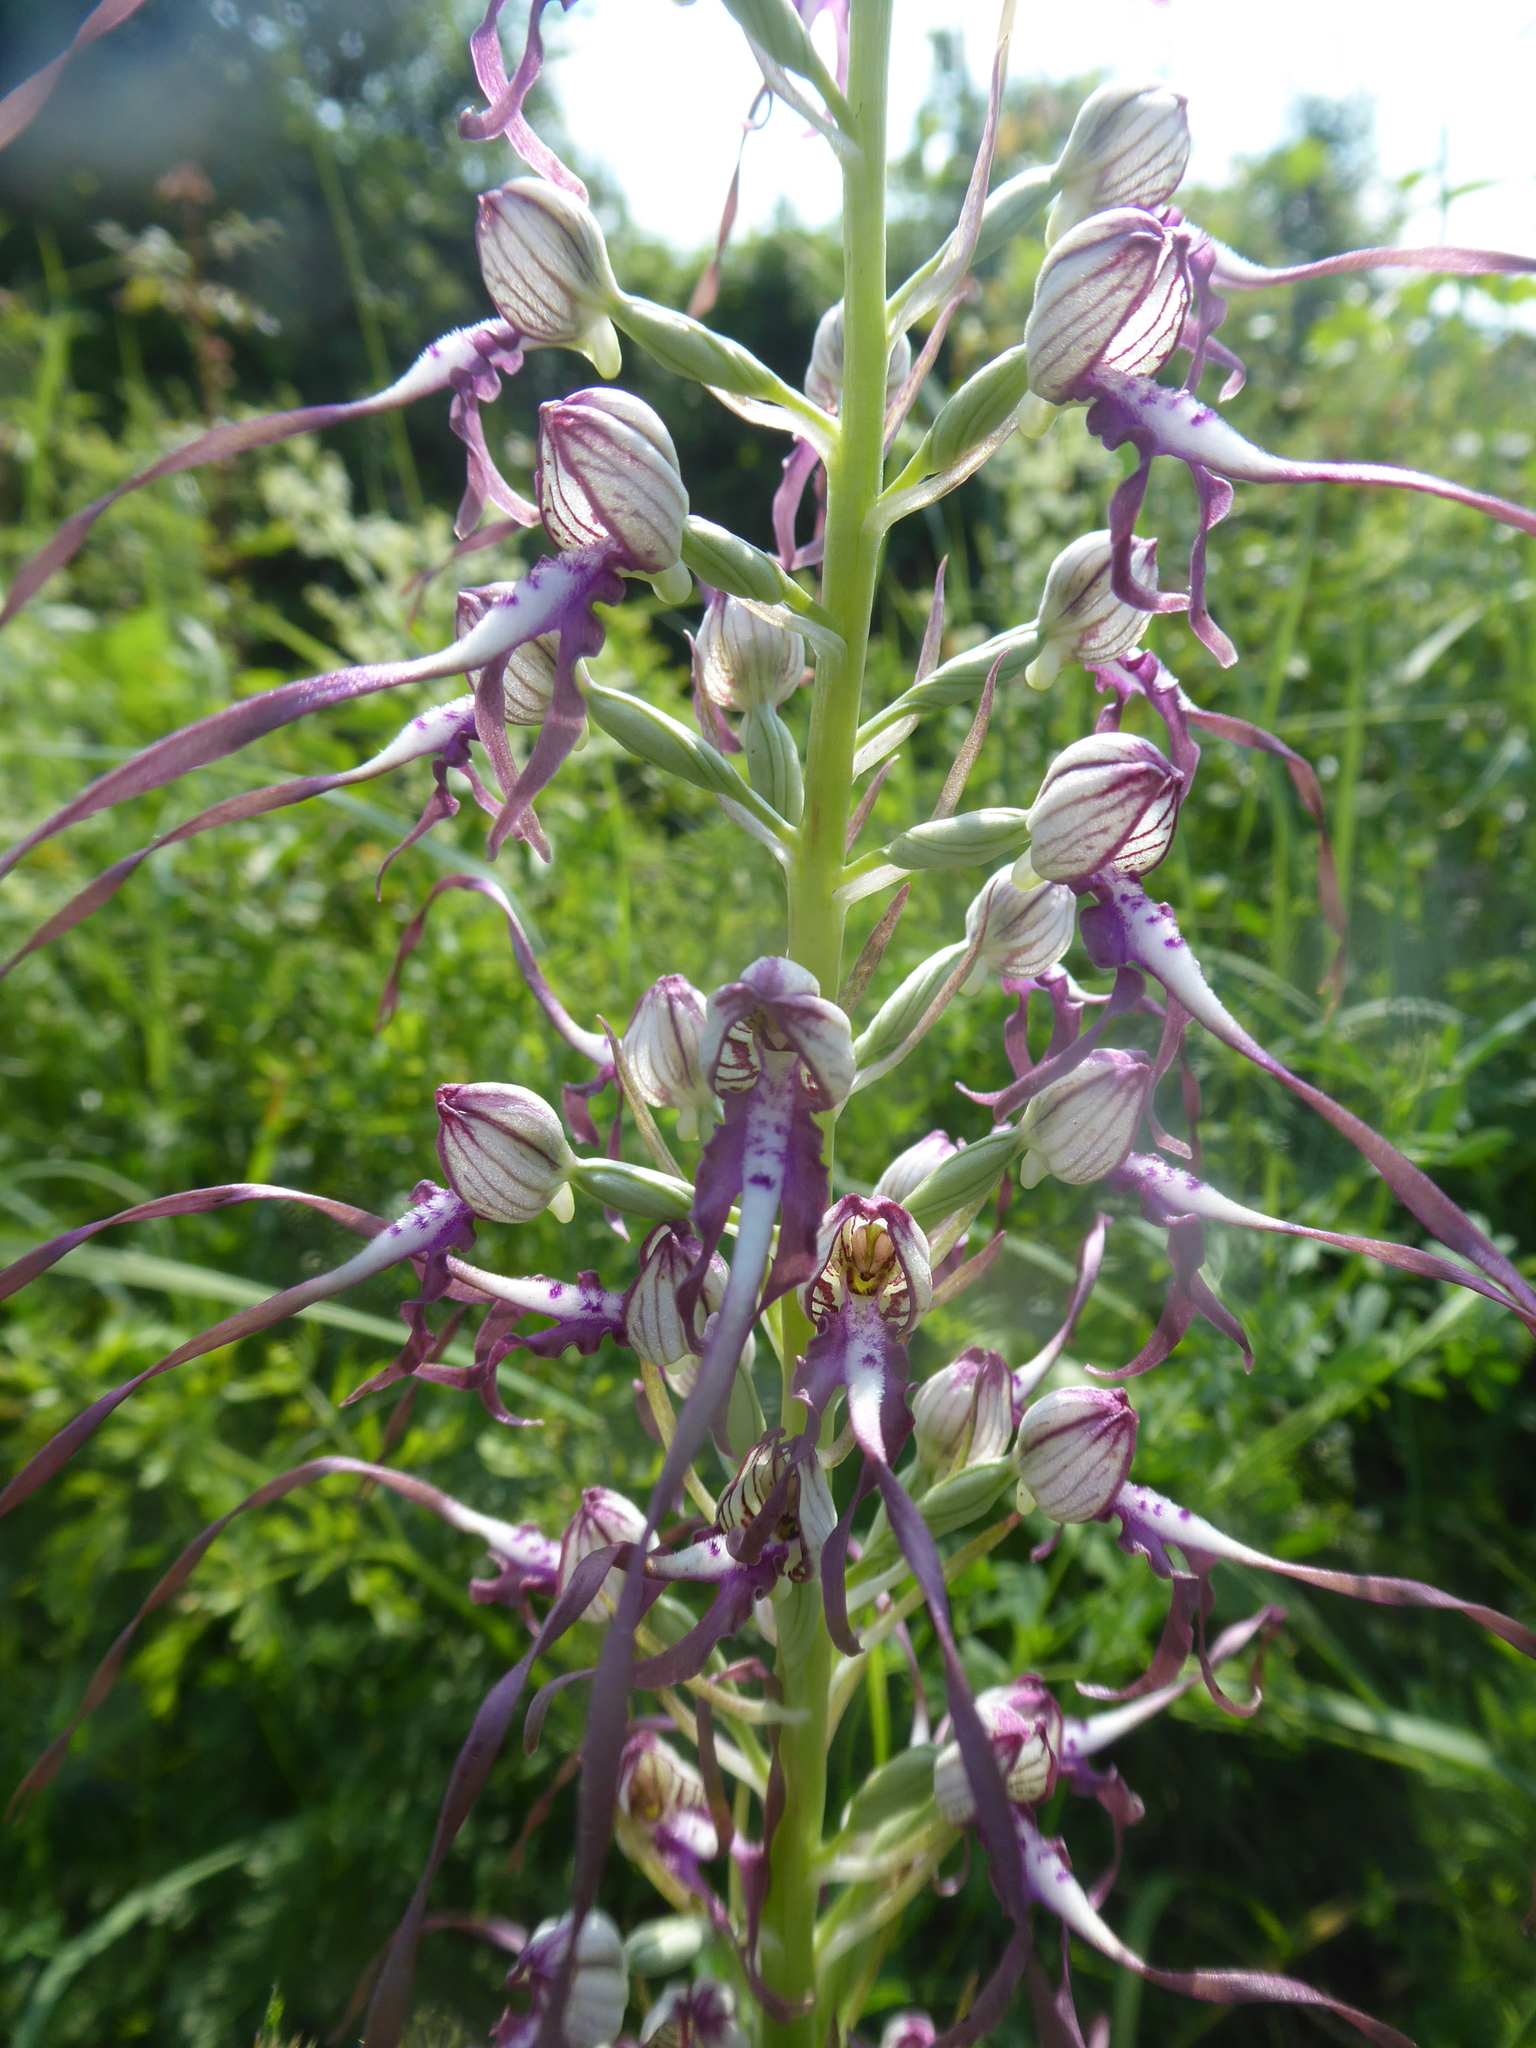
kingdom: Plantae
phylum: Tracheophyta
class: Liliopsida
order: Asparagales
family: Orchidaceae
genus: Himantoglossum
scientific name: Himantoglossum adriaticum
